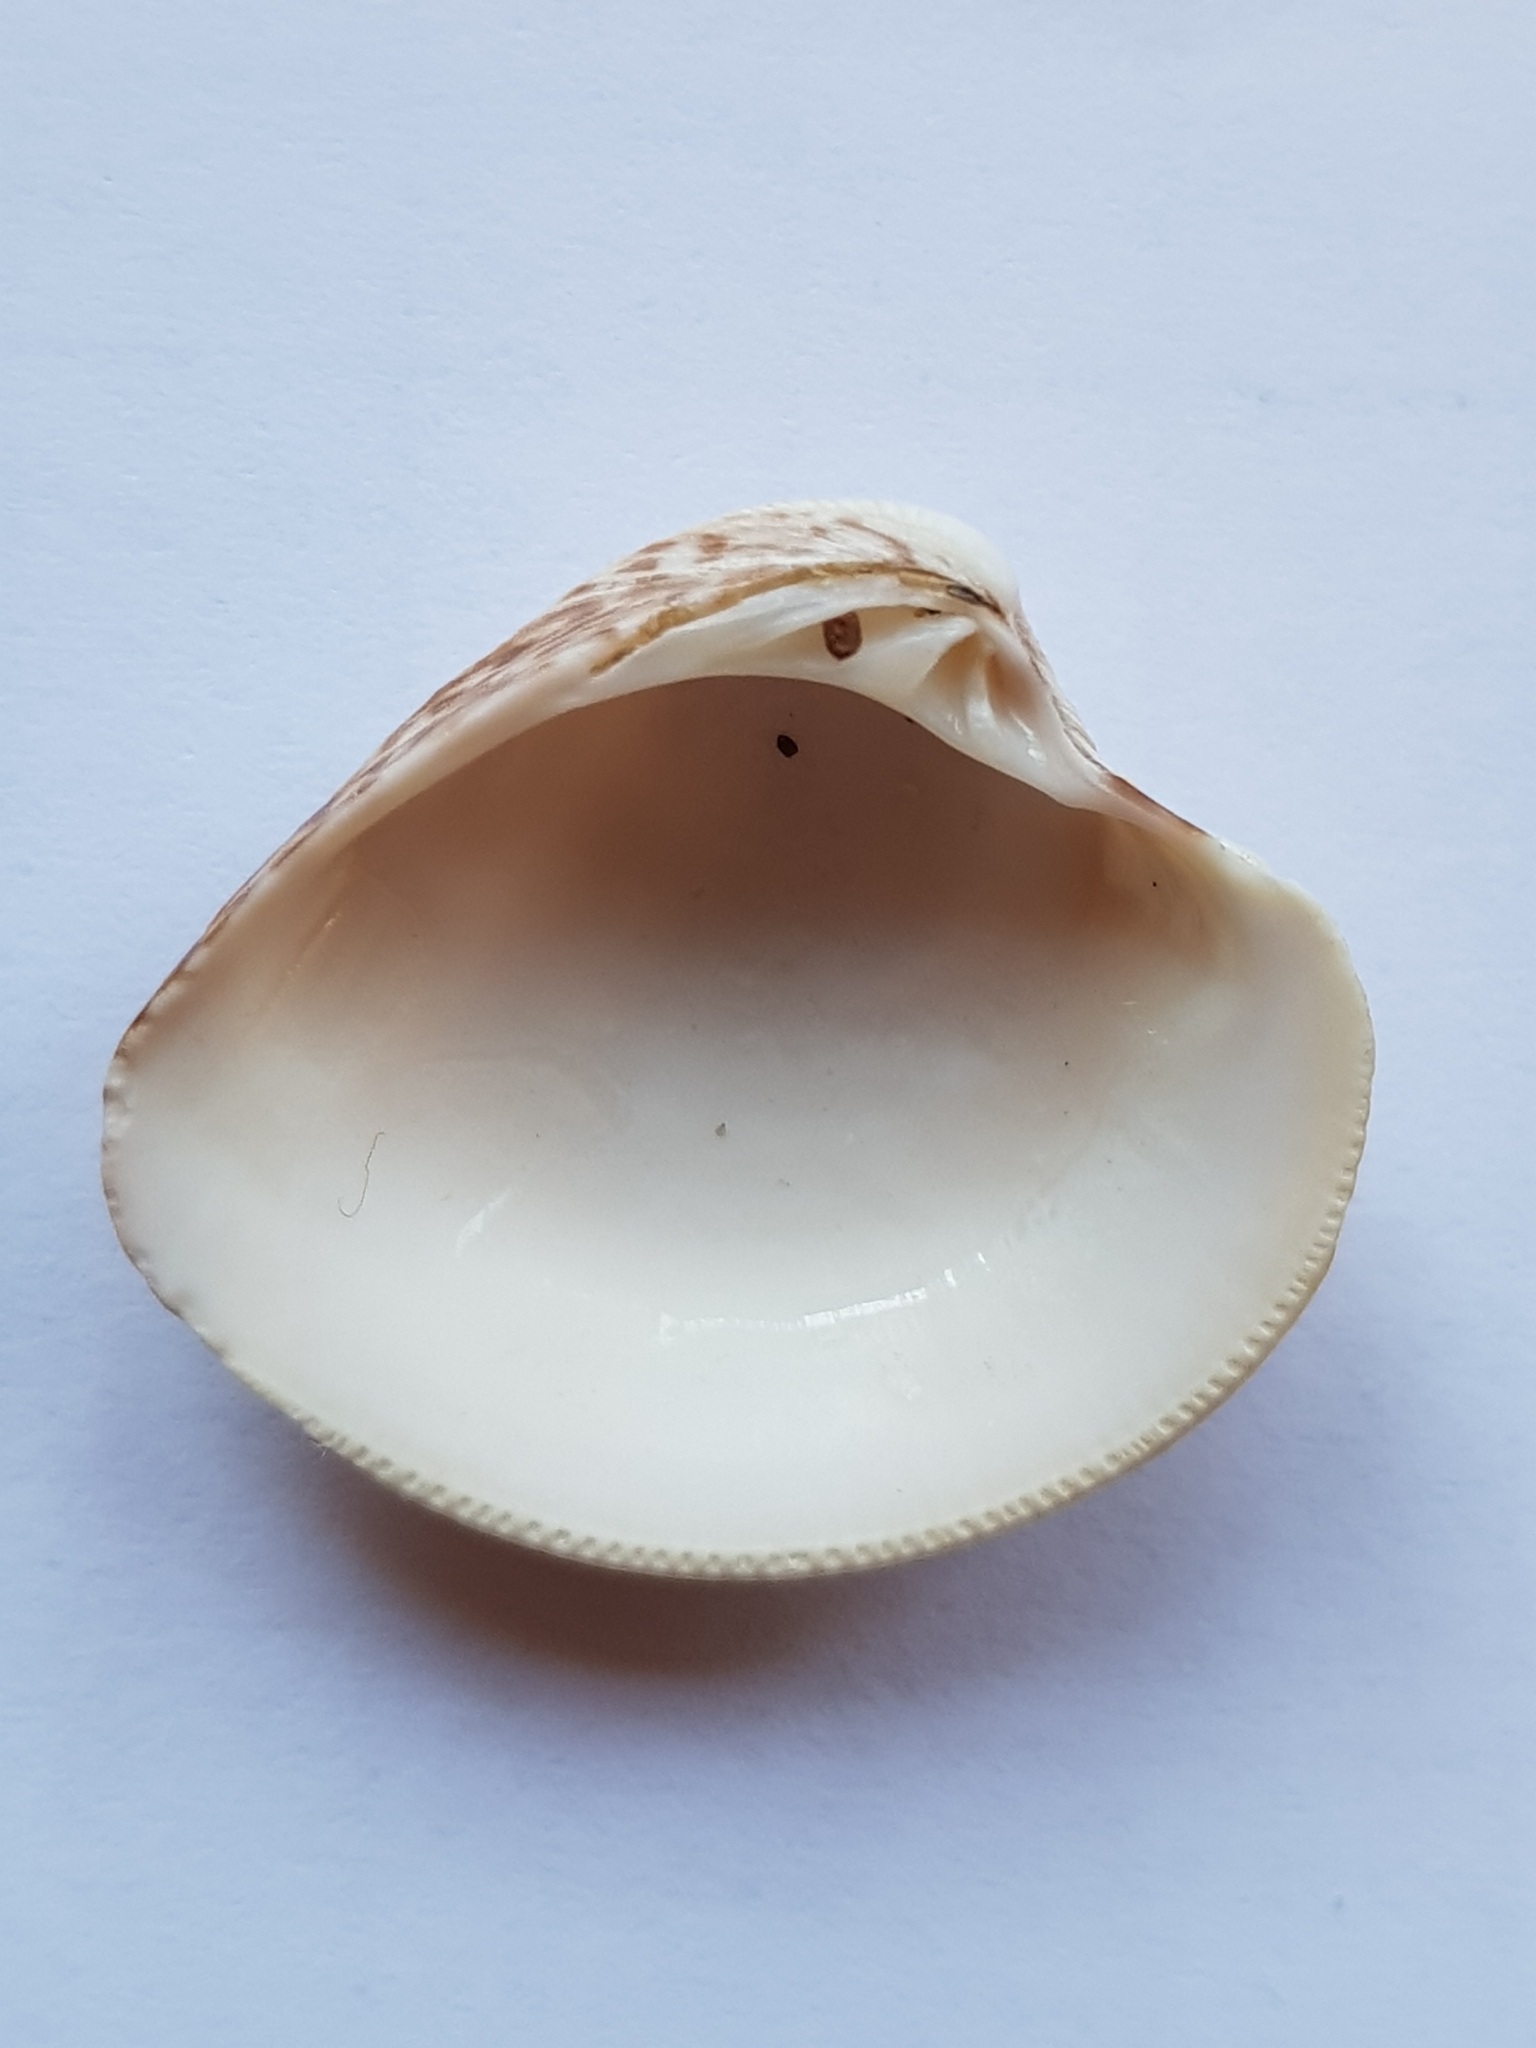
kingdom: Animalia
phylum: Mollusca
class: Bivalvia
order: Venerida
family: Veneridae
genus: Chamelea
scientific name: Chamelea striatula
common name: Striped venus
